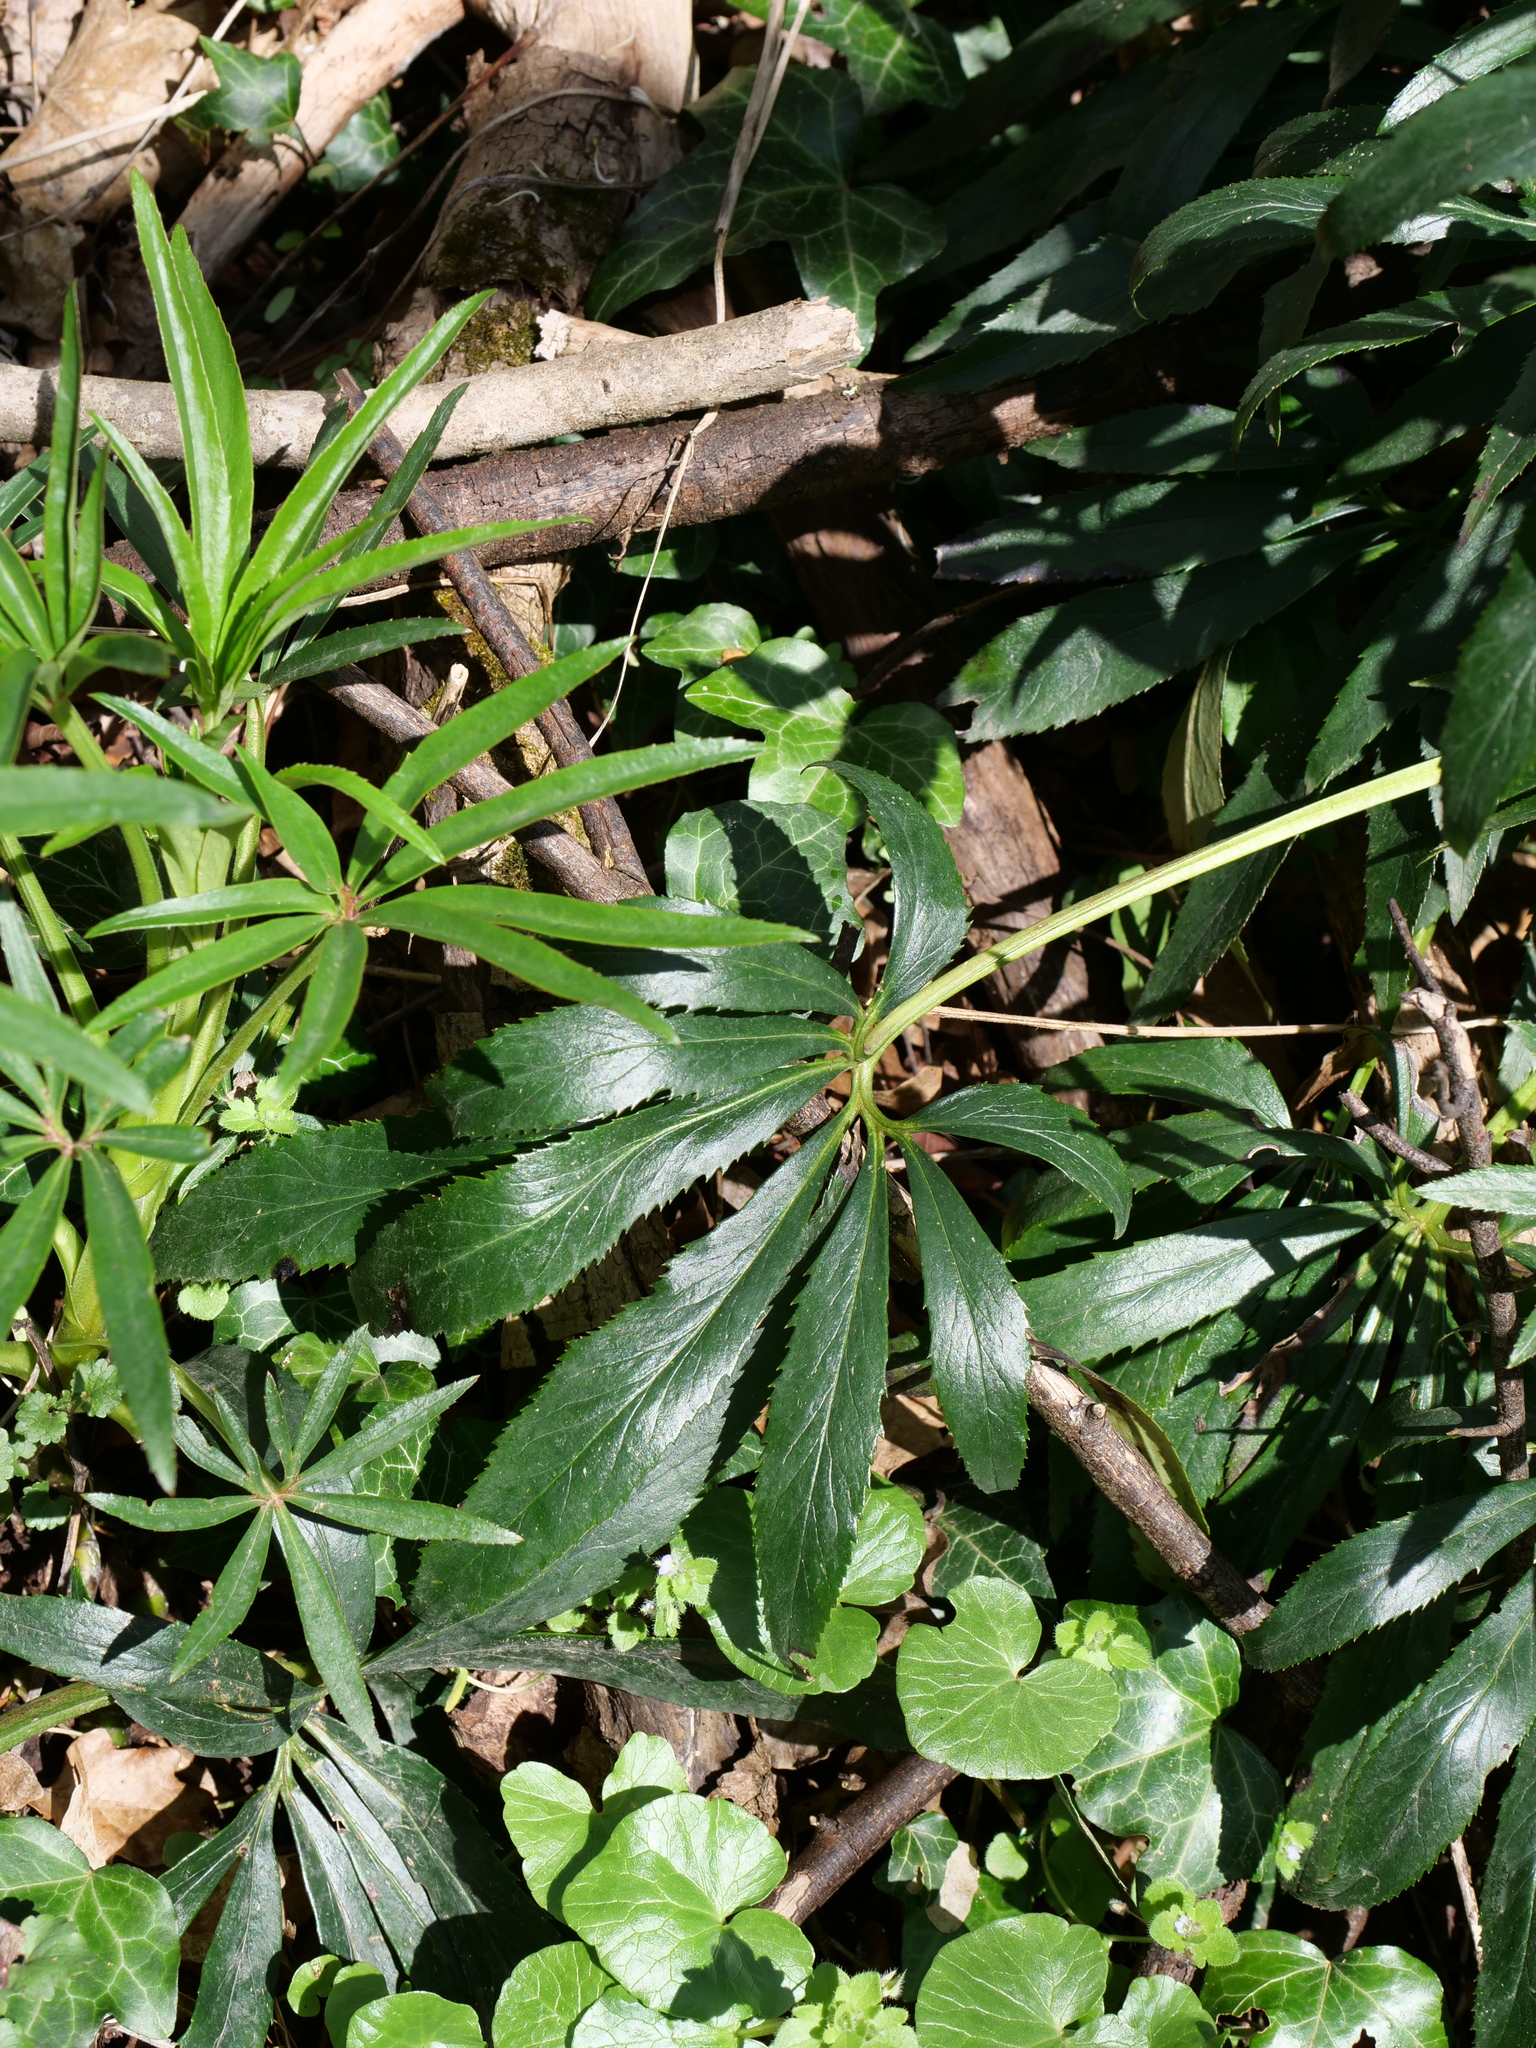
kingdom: Plantae
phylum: Tracheophyta
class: Magnoliopsida
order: Ranunculales
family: Ranunculaceae
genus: Helleborus
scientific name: Helleborus foetidus
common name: Stinking hellebore
